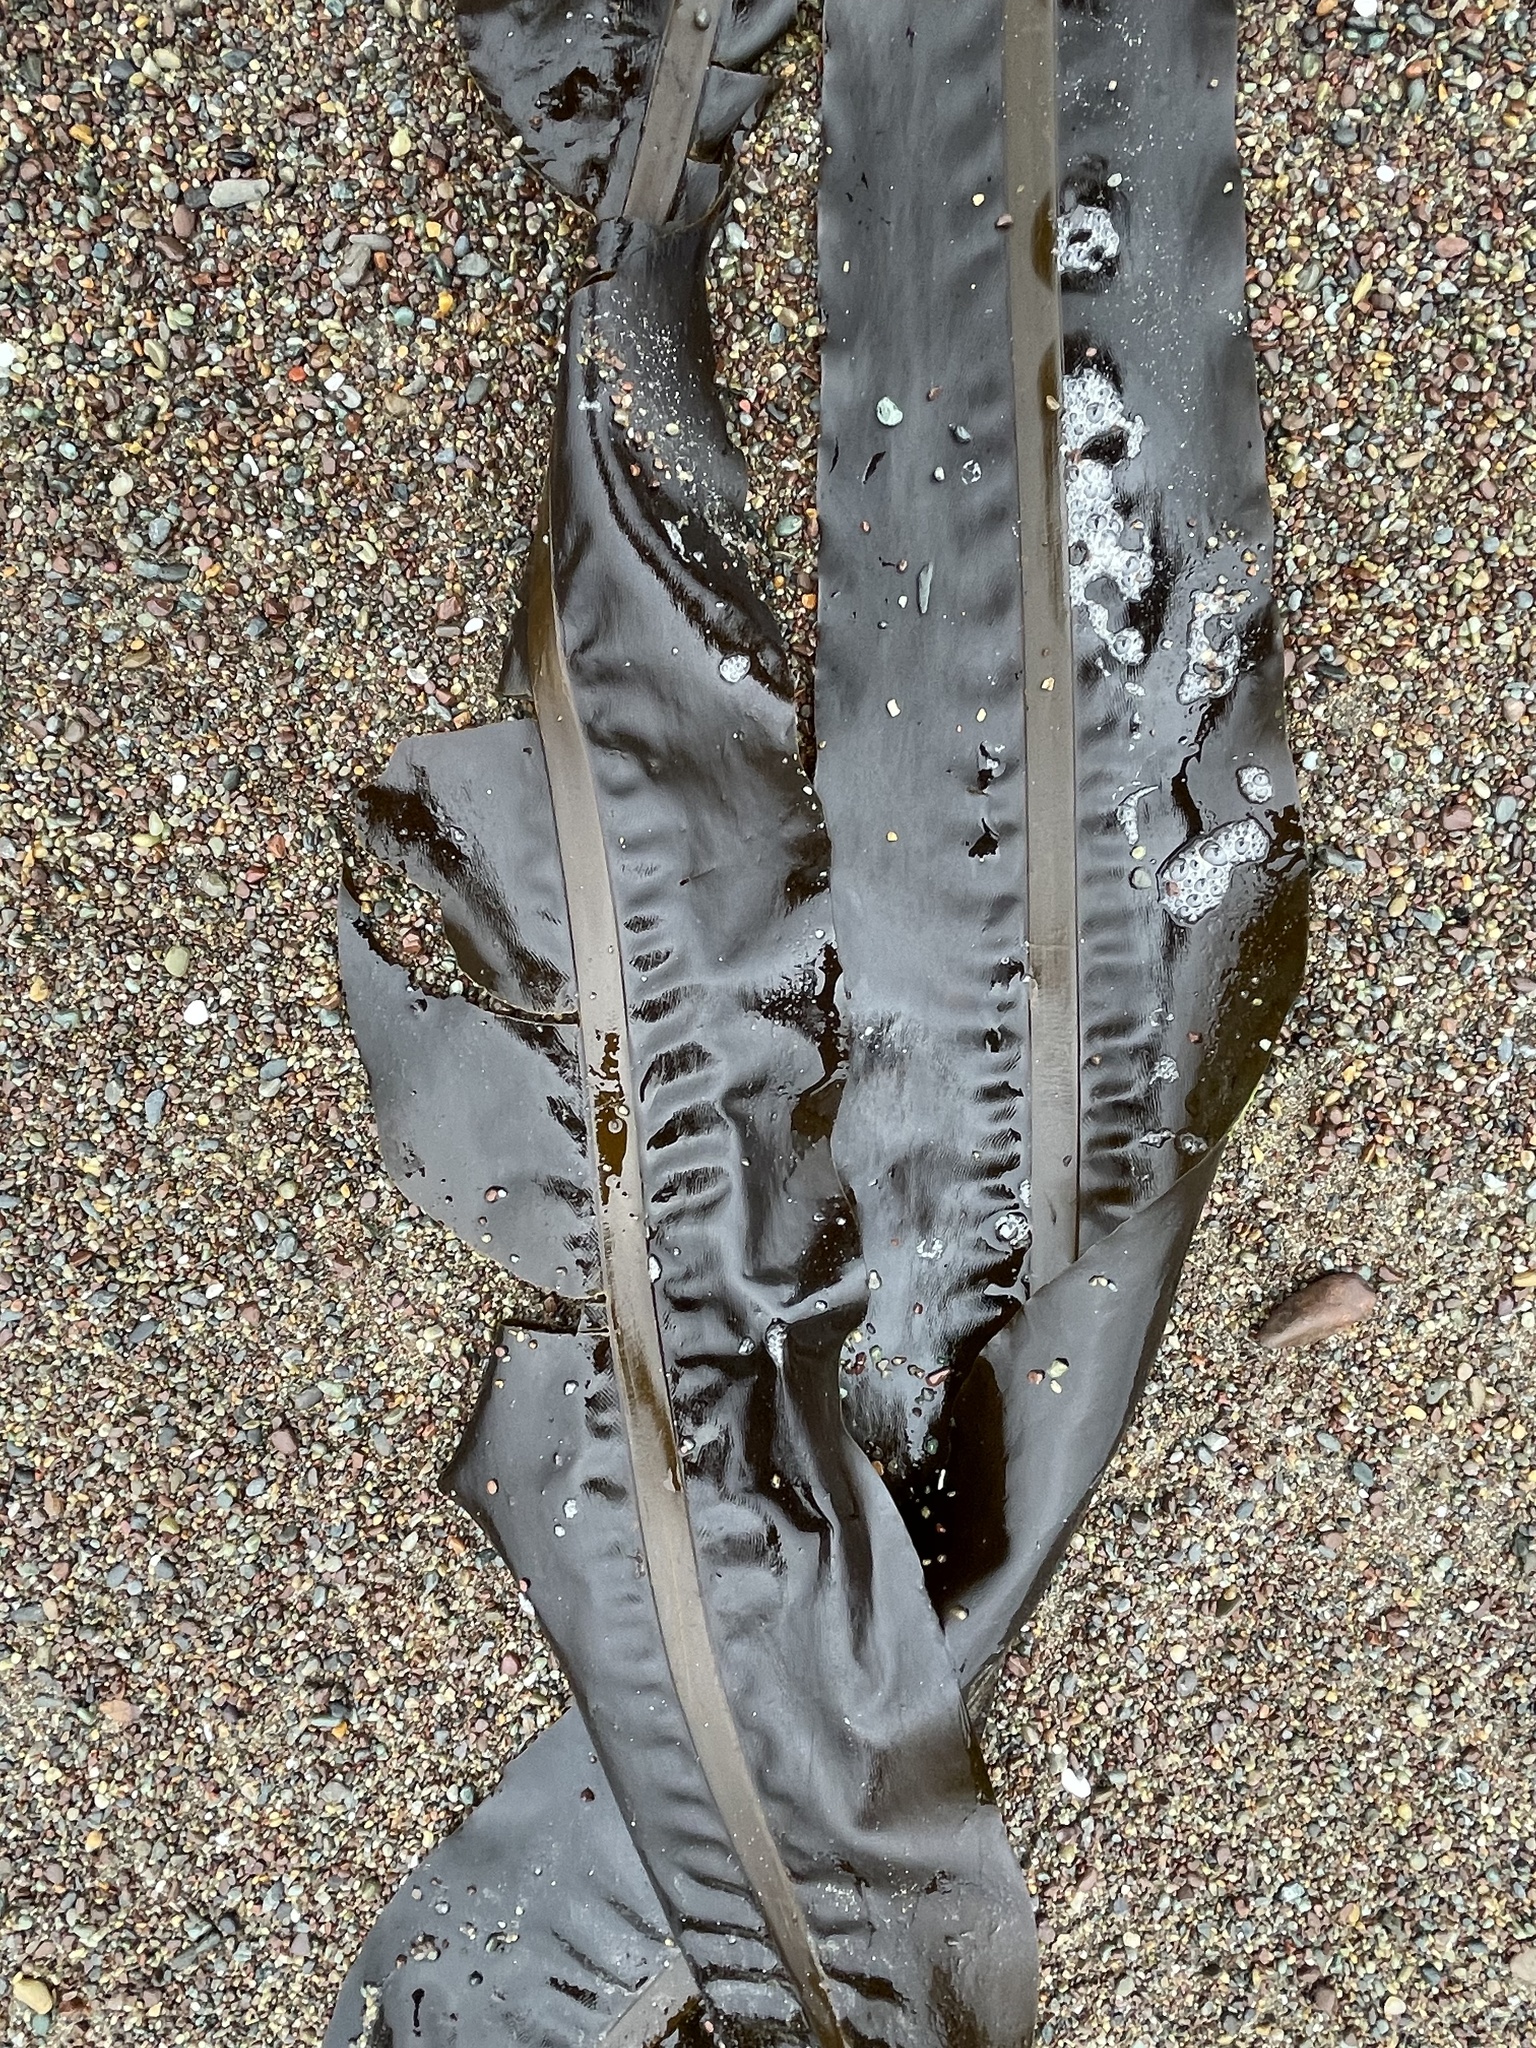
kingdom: Chromista
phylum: Ochrophyta
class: Phaeophyceae
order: Laminariales
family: Alariaceae
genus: Alaria
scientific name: Alaria marginata
